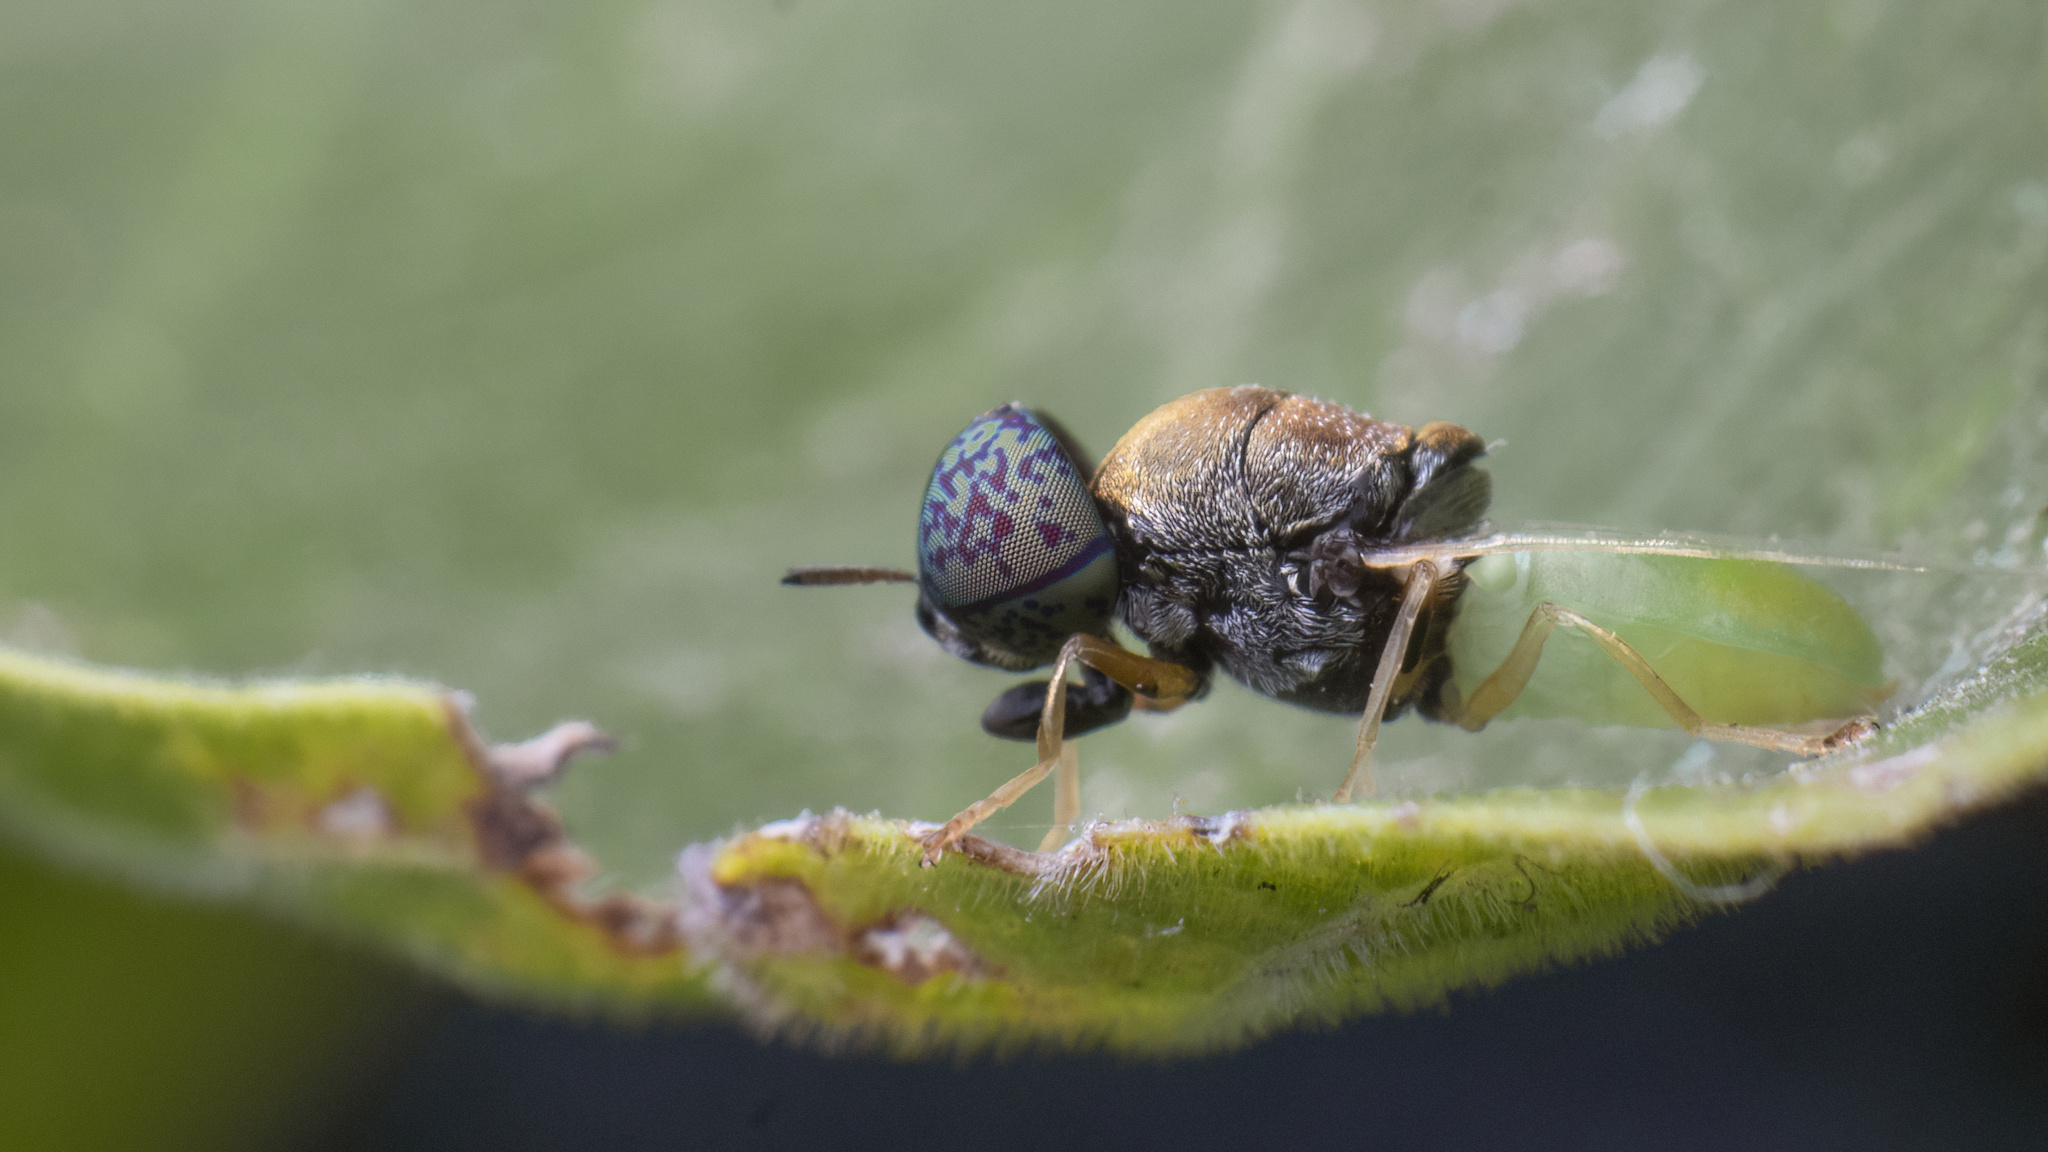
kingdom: Animalia
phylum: Arthropoda
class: Insecta
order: Diptera
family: Stratiomyidae
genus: Oplodontha
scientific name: Oplodontha rubrithorax
